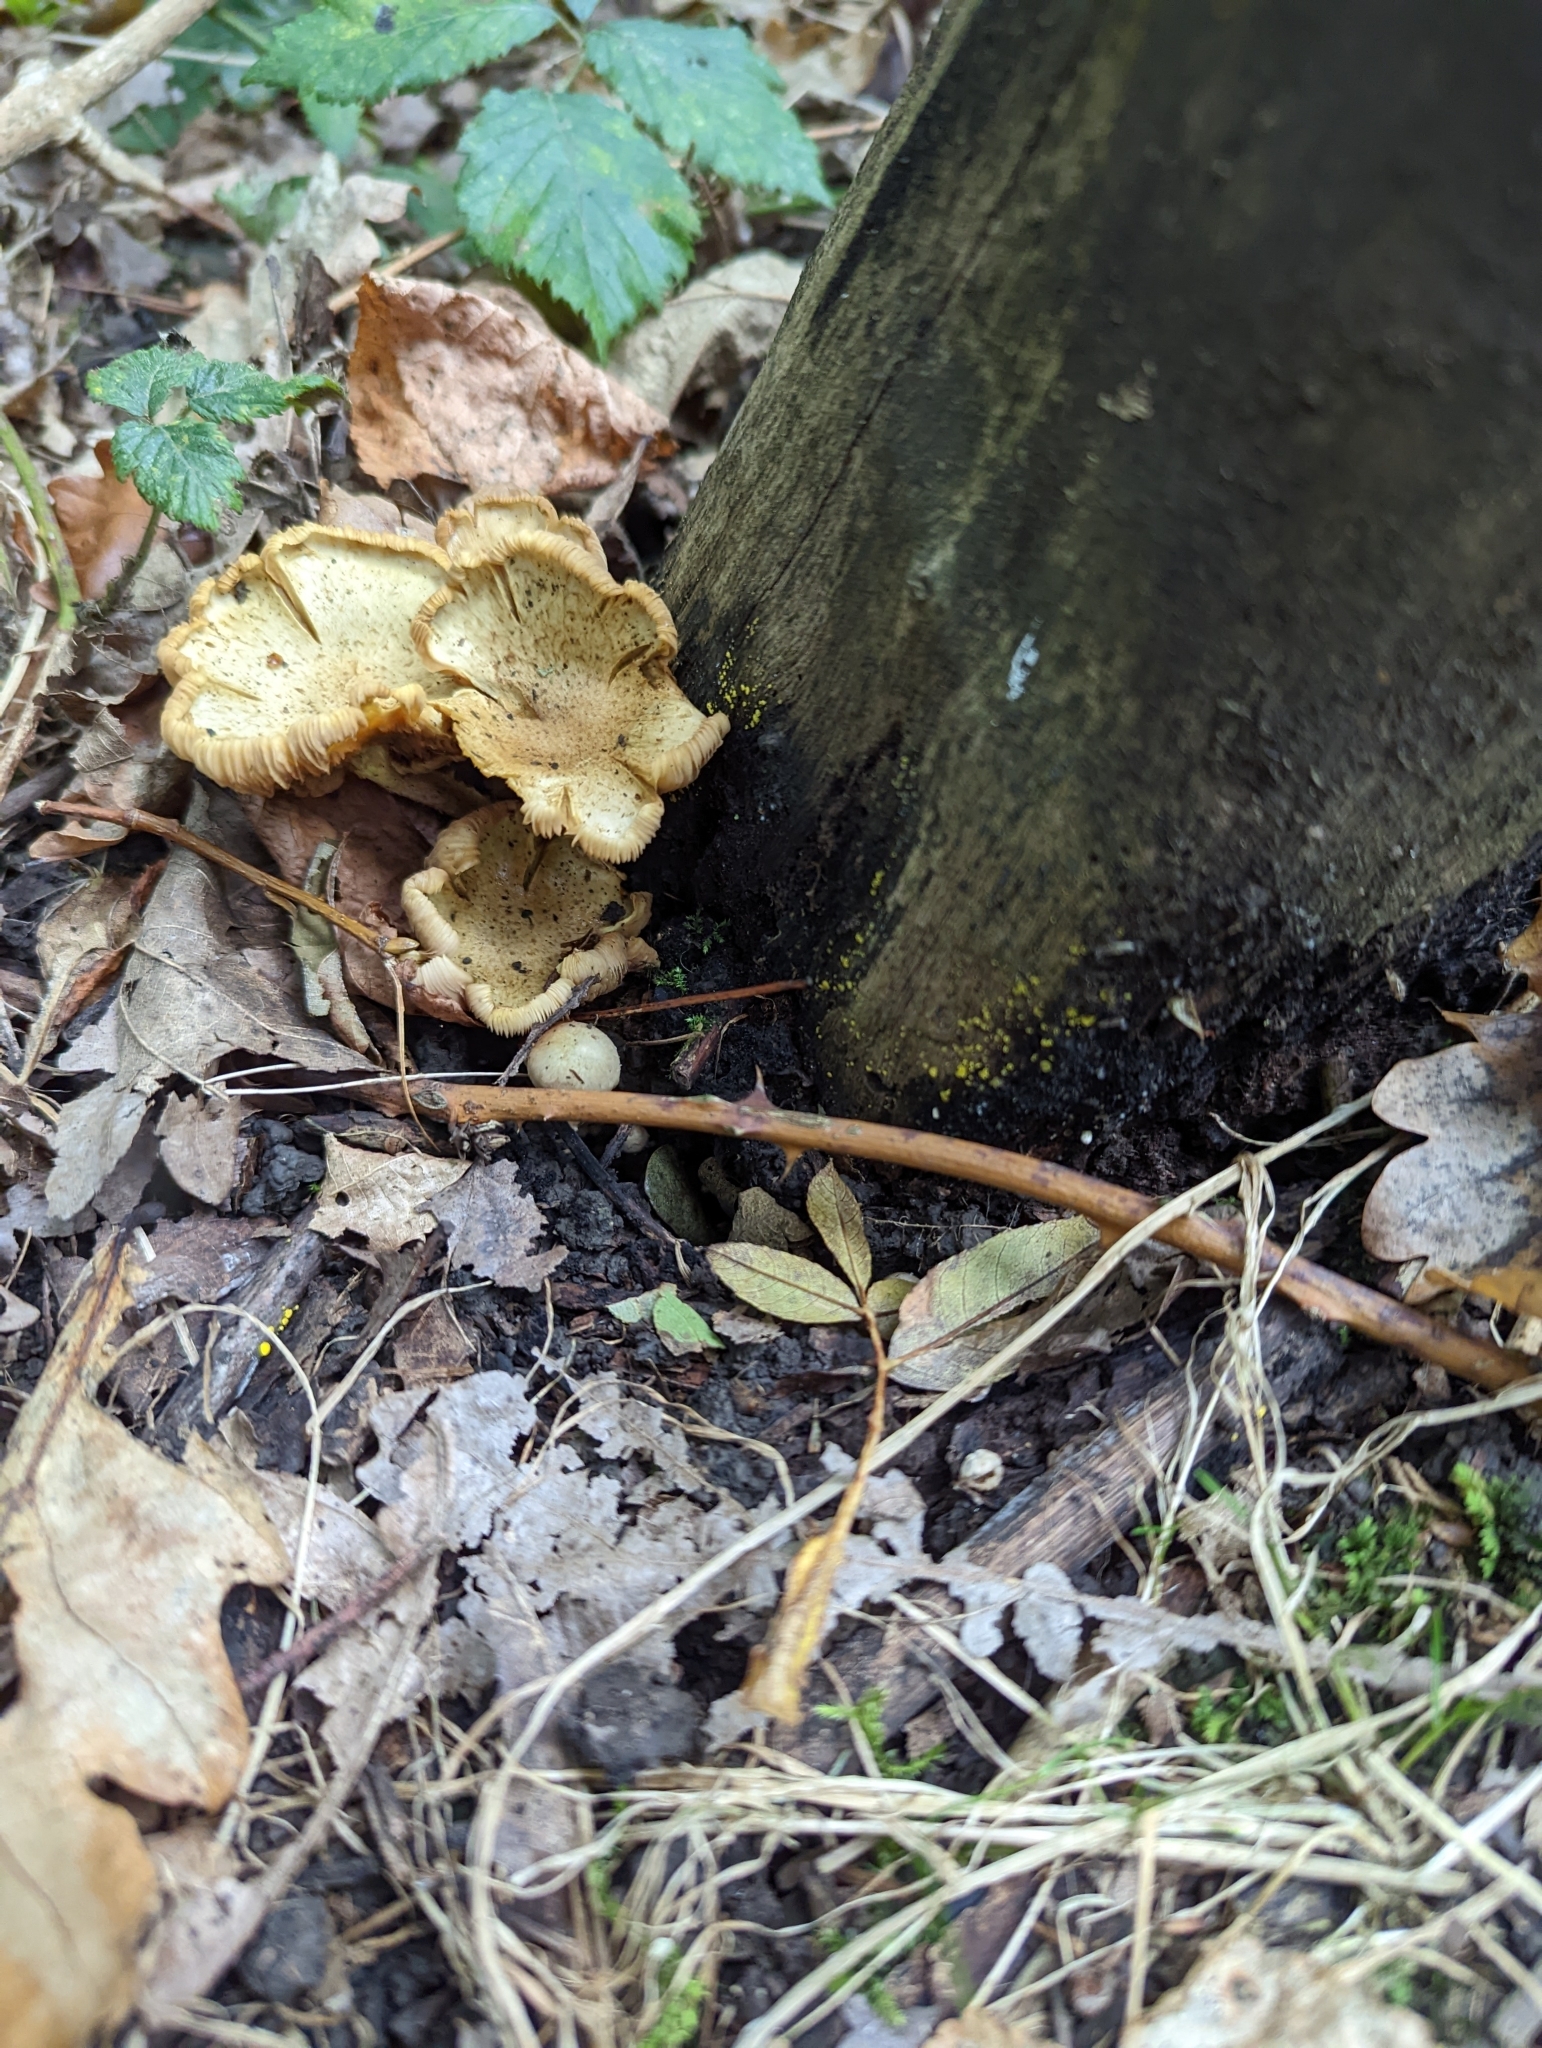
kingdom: Fungi
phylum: Basidiomycota
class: Agaricomycetes
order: Agaricales
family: Strophariaceae
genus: Pholiota
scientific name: Pholiota squarrosa
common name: Shaggy pholiota
